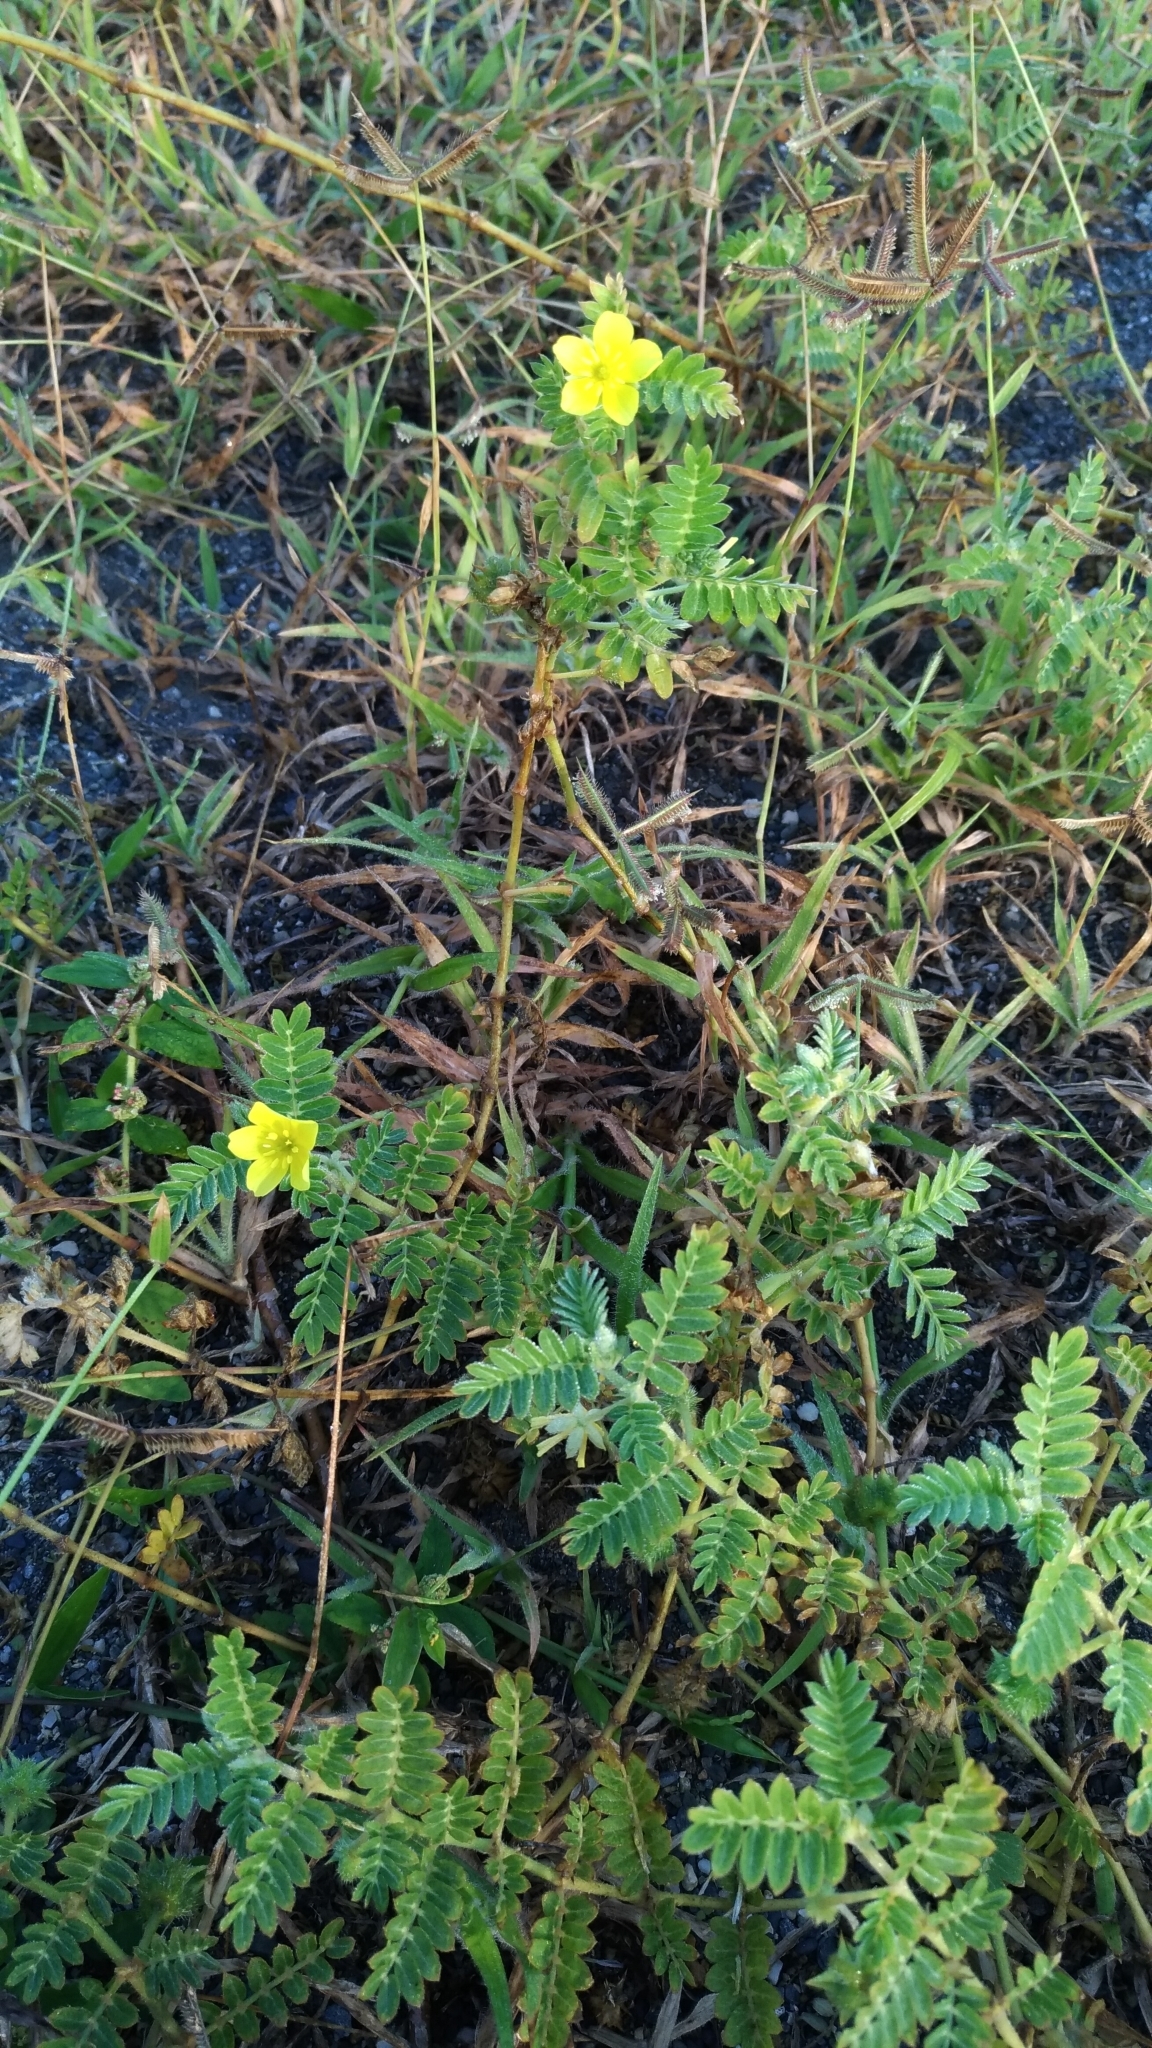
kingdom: Plantae
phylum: Tracheophyta
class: Magnoliopsida
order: Zygophyllales
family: Zygophyllaceae
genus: Tribulus
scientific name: Tribulus terrestris
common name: Puncturevine
